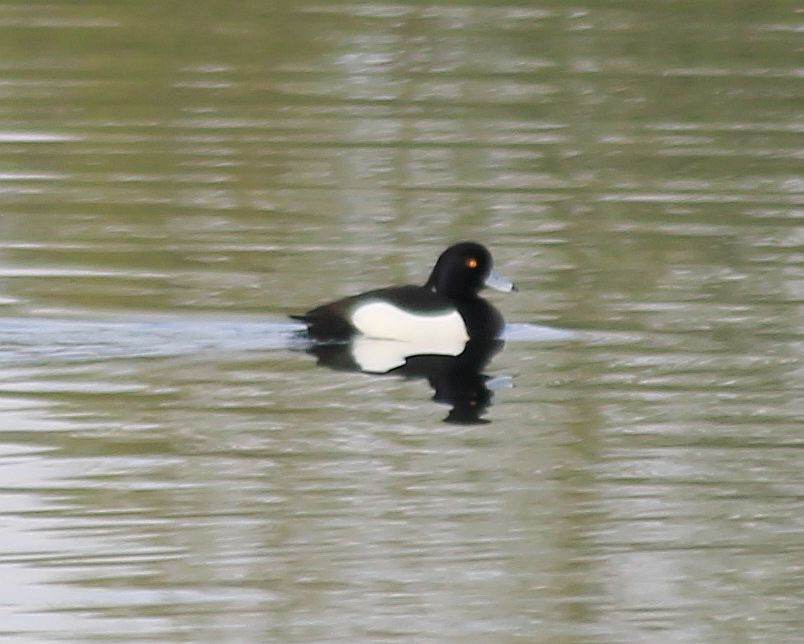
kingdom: Animalia
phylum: Chordata
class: Aves
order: Anseriformes
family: Anatidae
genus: Aythya
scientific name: Aythya fuligula
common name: Tufted duck
